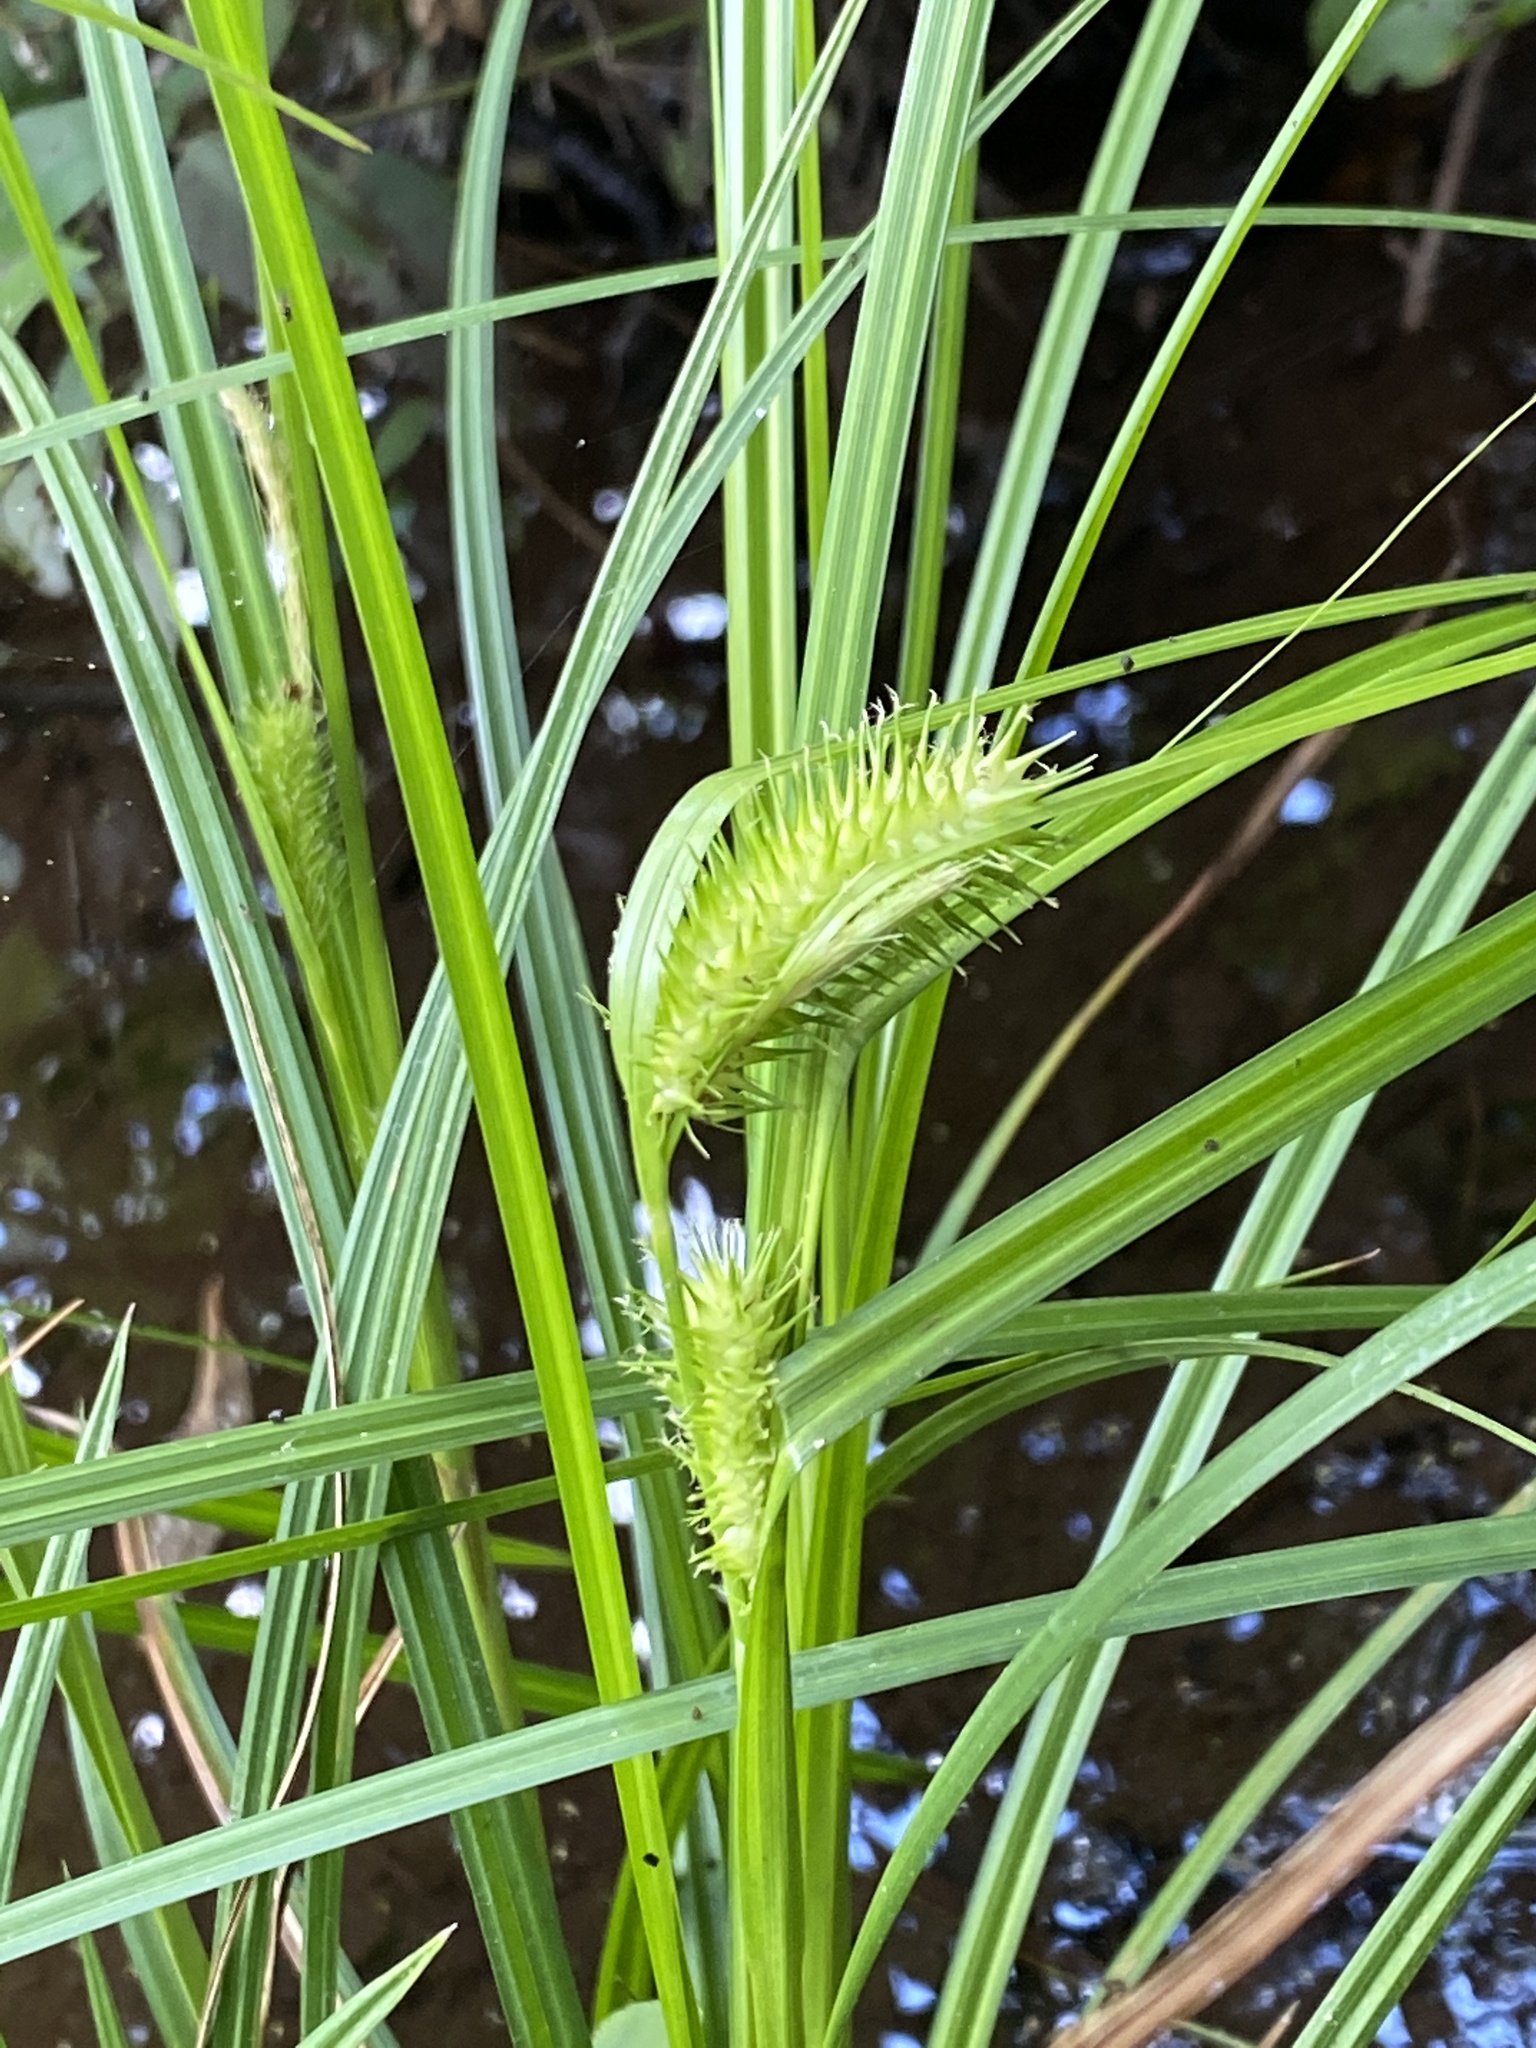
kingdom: Plantae
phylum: Tracheophyta
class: Liliopsida
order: Poales
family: Cyperaceae
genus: Carex
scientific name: Carex lurida
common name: Sallow sedge
